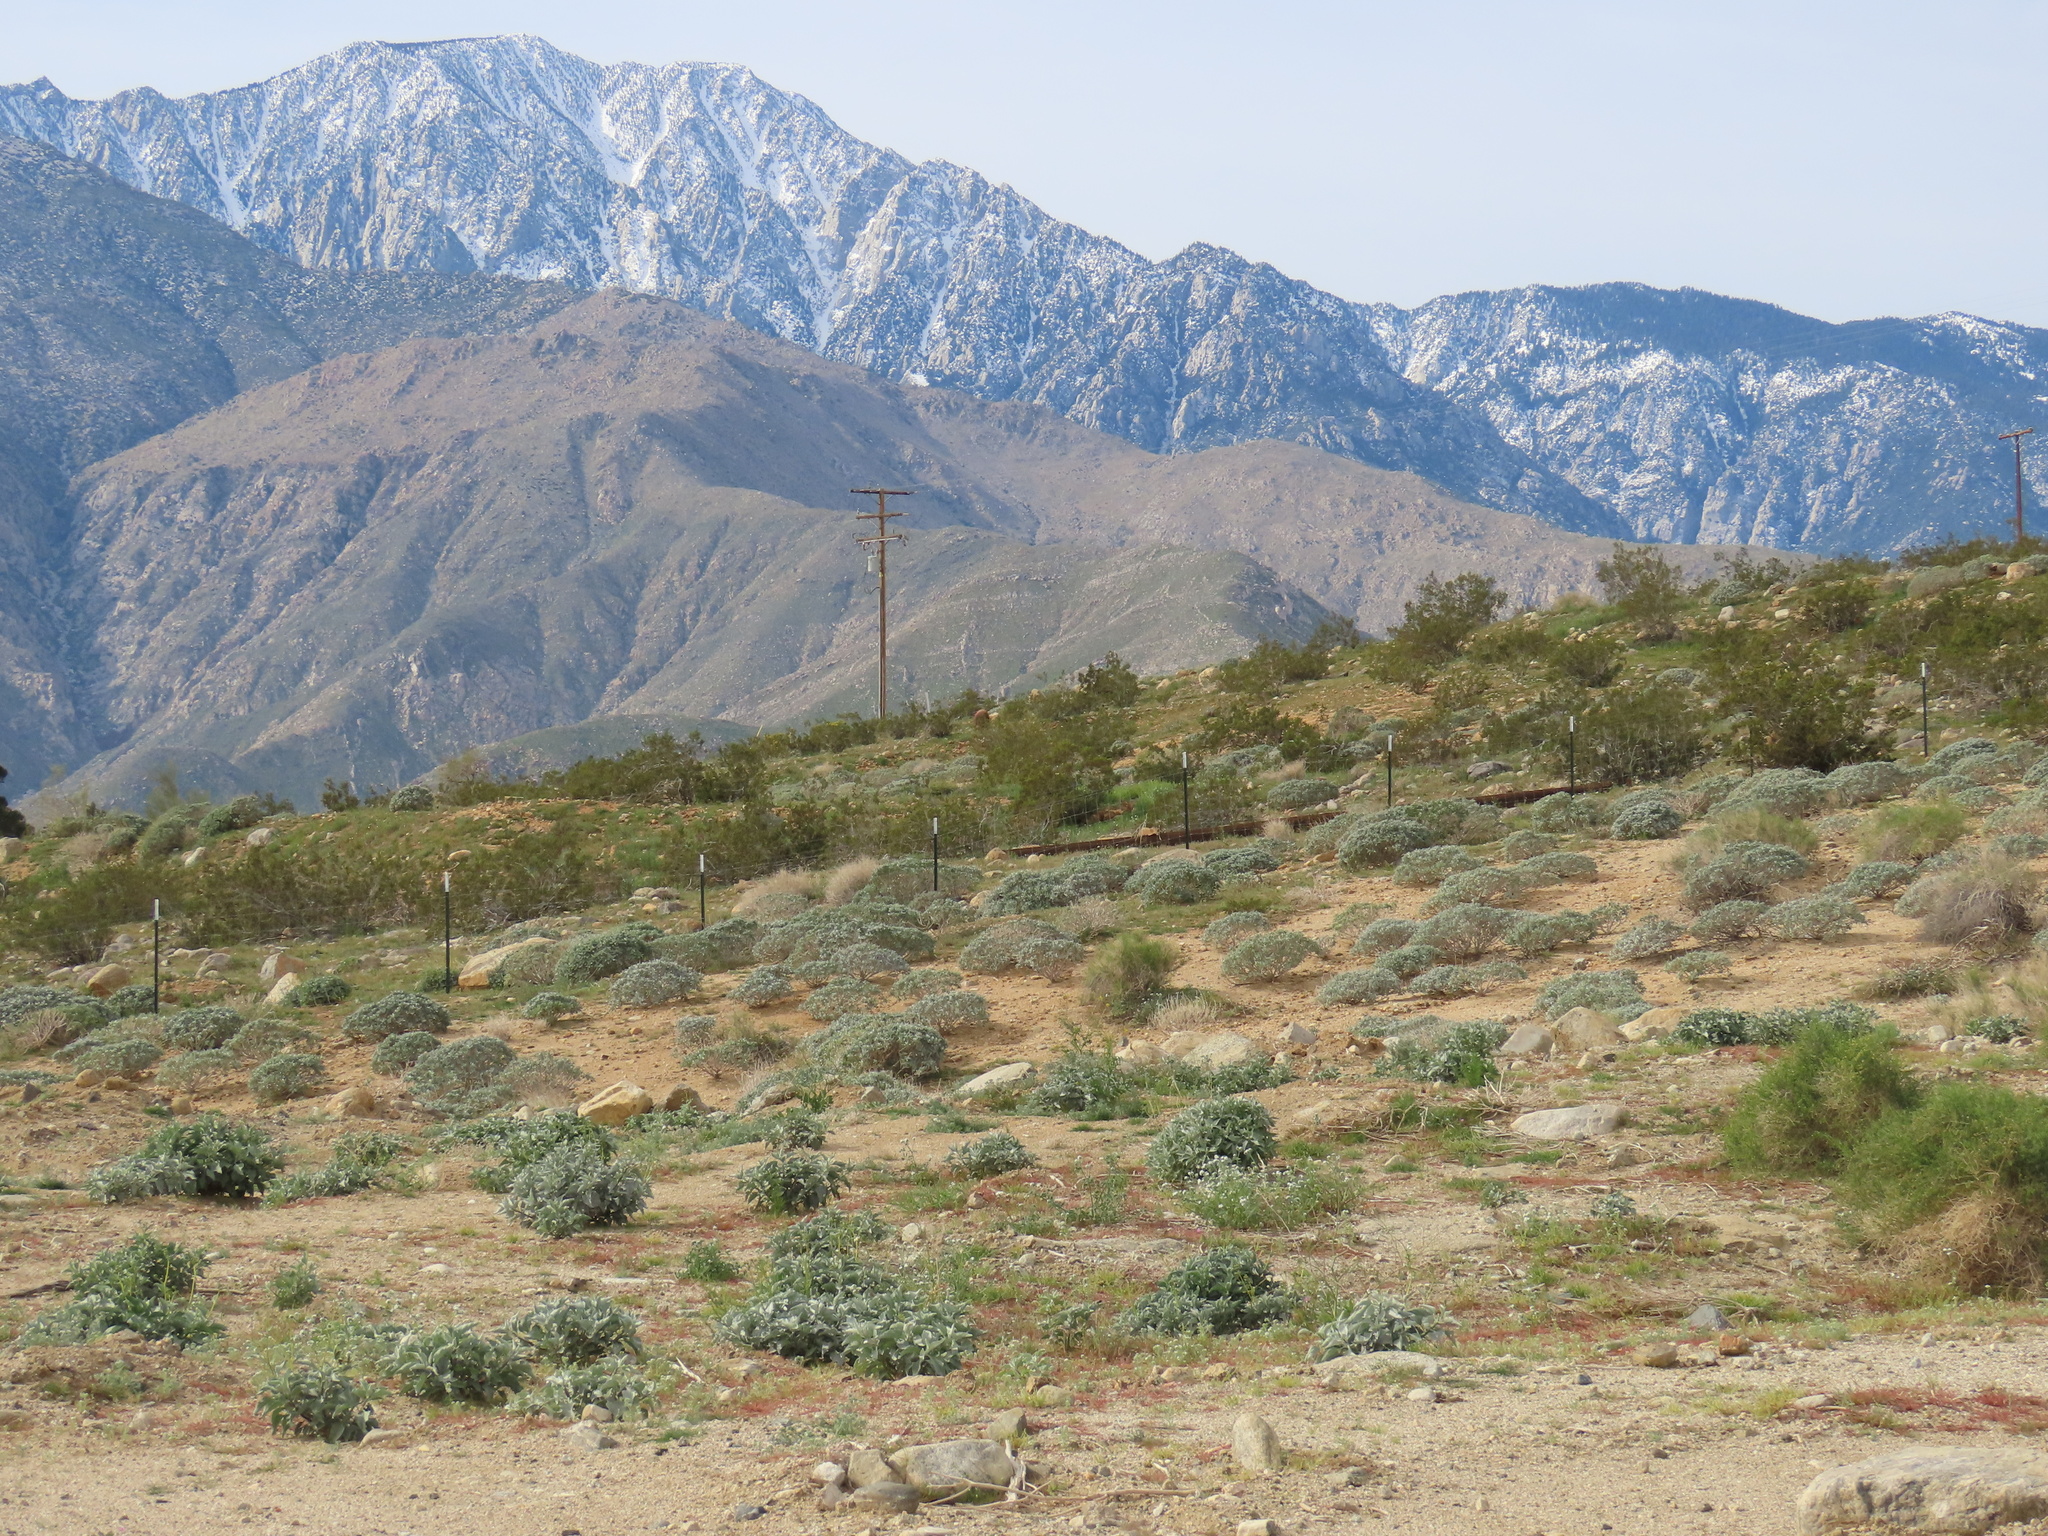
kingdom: Plantae
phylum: Tracheophyta
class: Magnoliopsida
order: Asterales
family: Asteraceae
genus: Encelia
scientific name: Encelia farinosa
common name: Brittlebush
